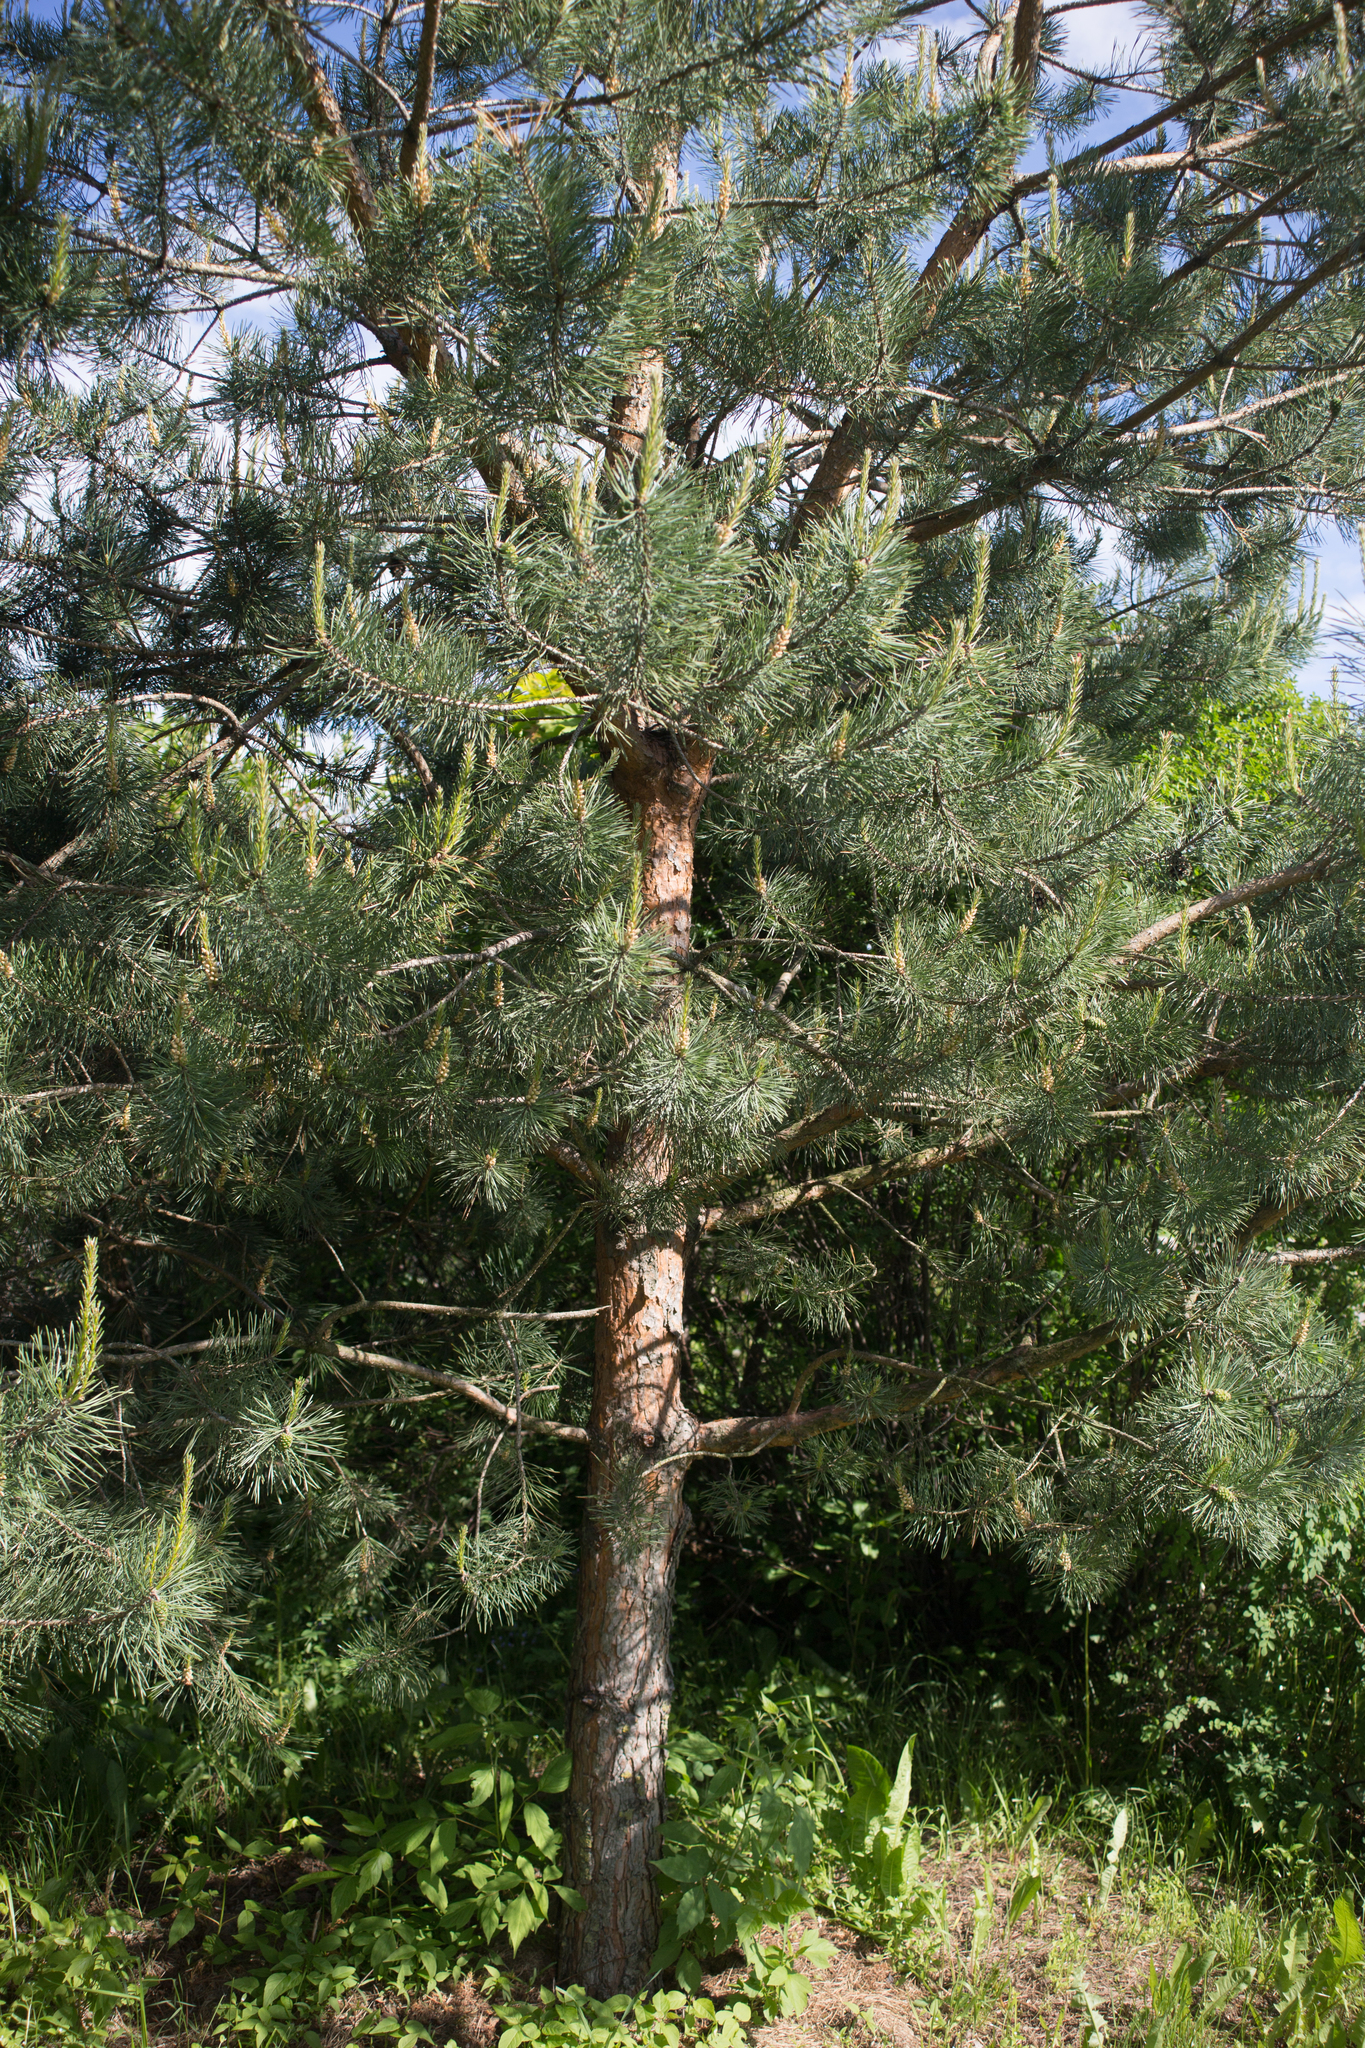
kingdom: Plantae
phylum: Tracheophyta
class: Pinopsida
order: Pinales
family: Pinaceae
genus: Pinus
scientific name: Pinus sylvestris
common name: Scots pine
